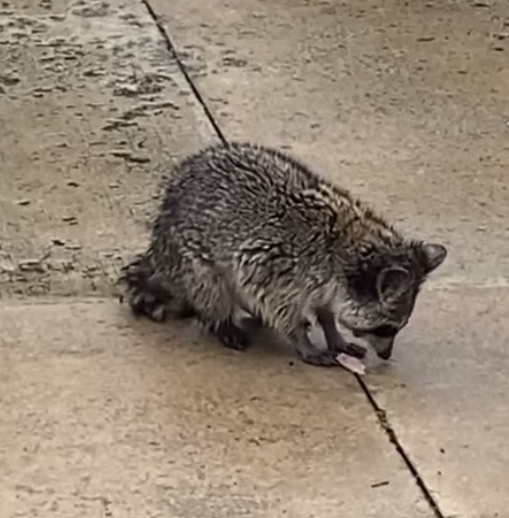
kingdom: Animalia
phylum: Chordata
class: Mammalia
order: Carnivora
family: Procyonidae
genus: Procyon
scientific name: Procyon lotor
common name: Raccoon
